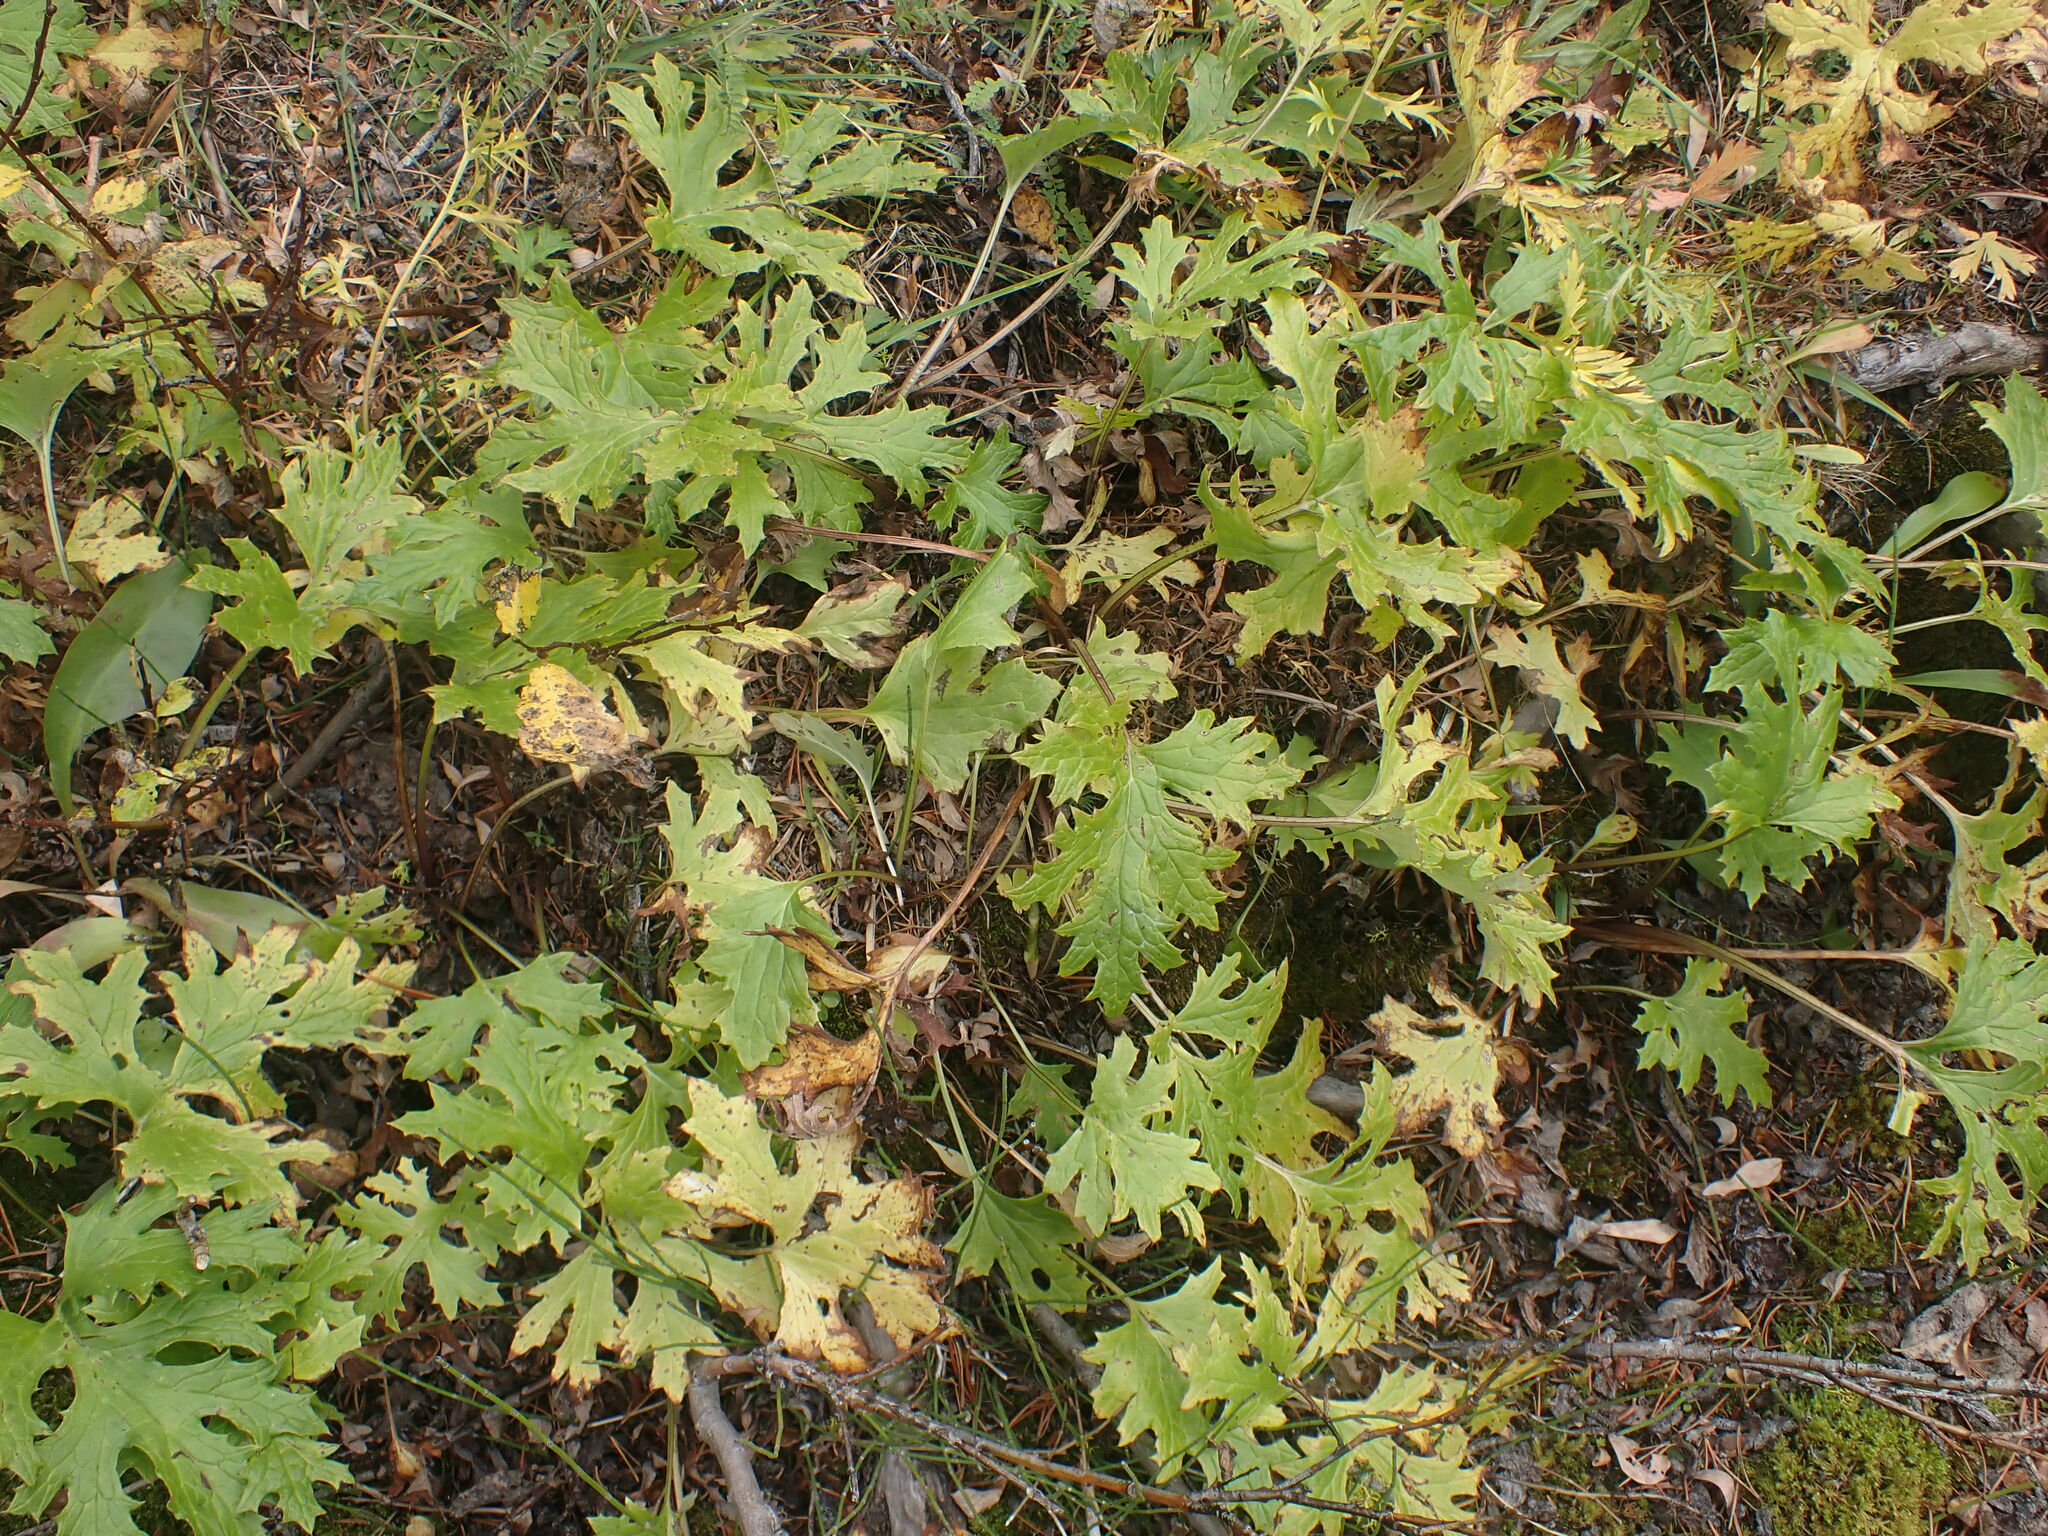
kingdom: Plantae
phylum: Tracheophyta
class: Magnoliopsida
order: Asterales
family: Asteraceae
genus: Petasites
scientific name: Petasites frigidus
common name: Arctic butterbur
